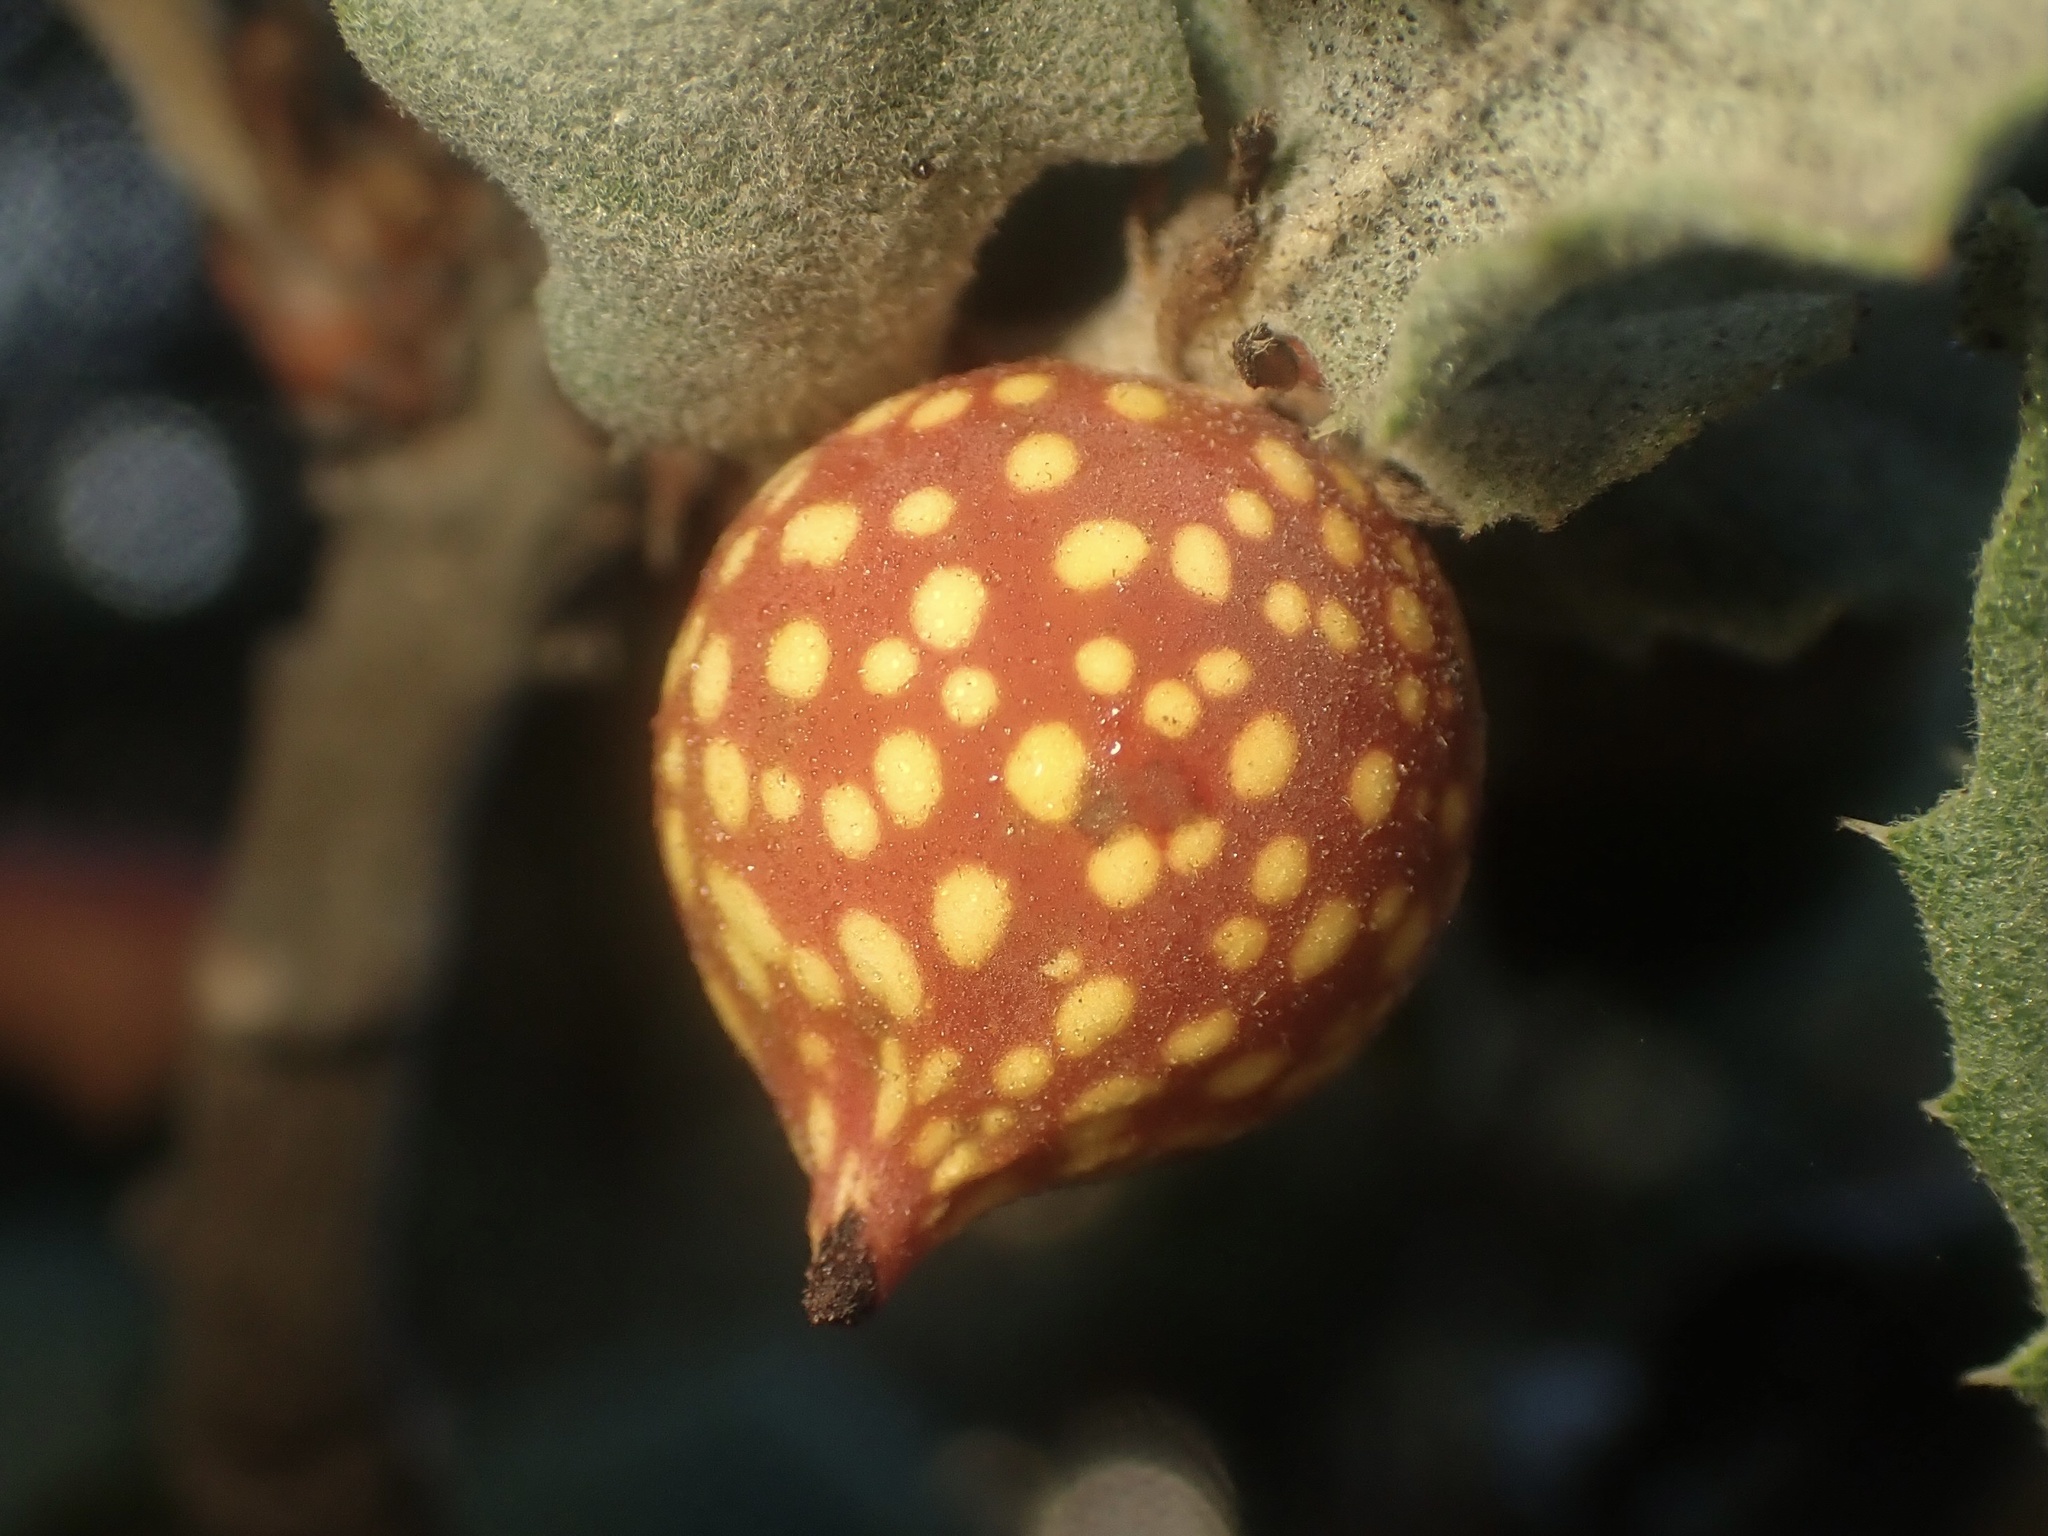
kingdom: Animalia
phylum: Arthropoda
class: Insecta
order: Hymenoptera
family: Cynipidae
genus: Burnettweldia
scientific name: Burnettweldia
